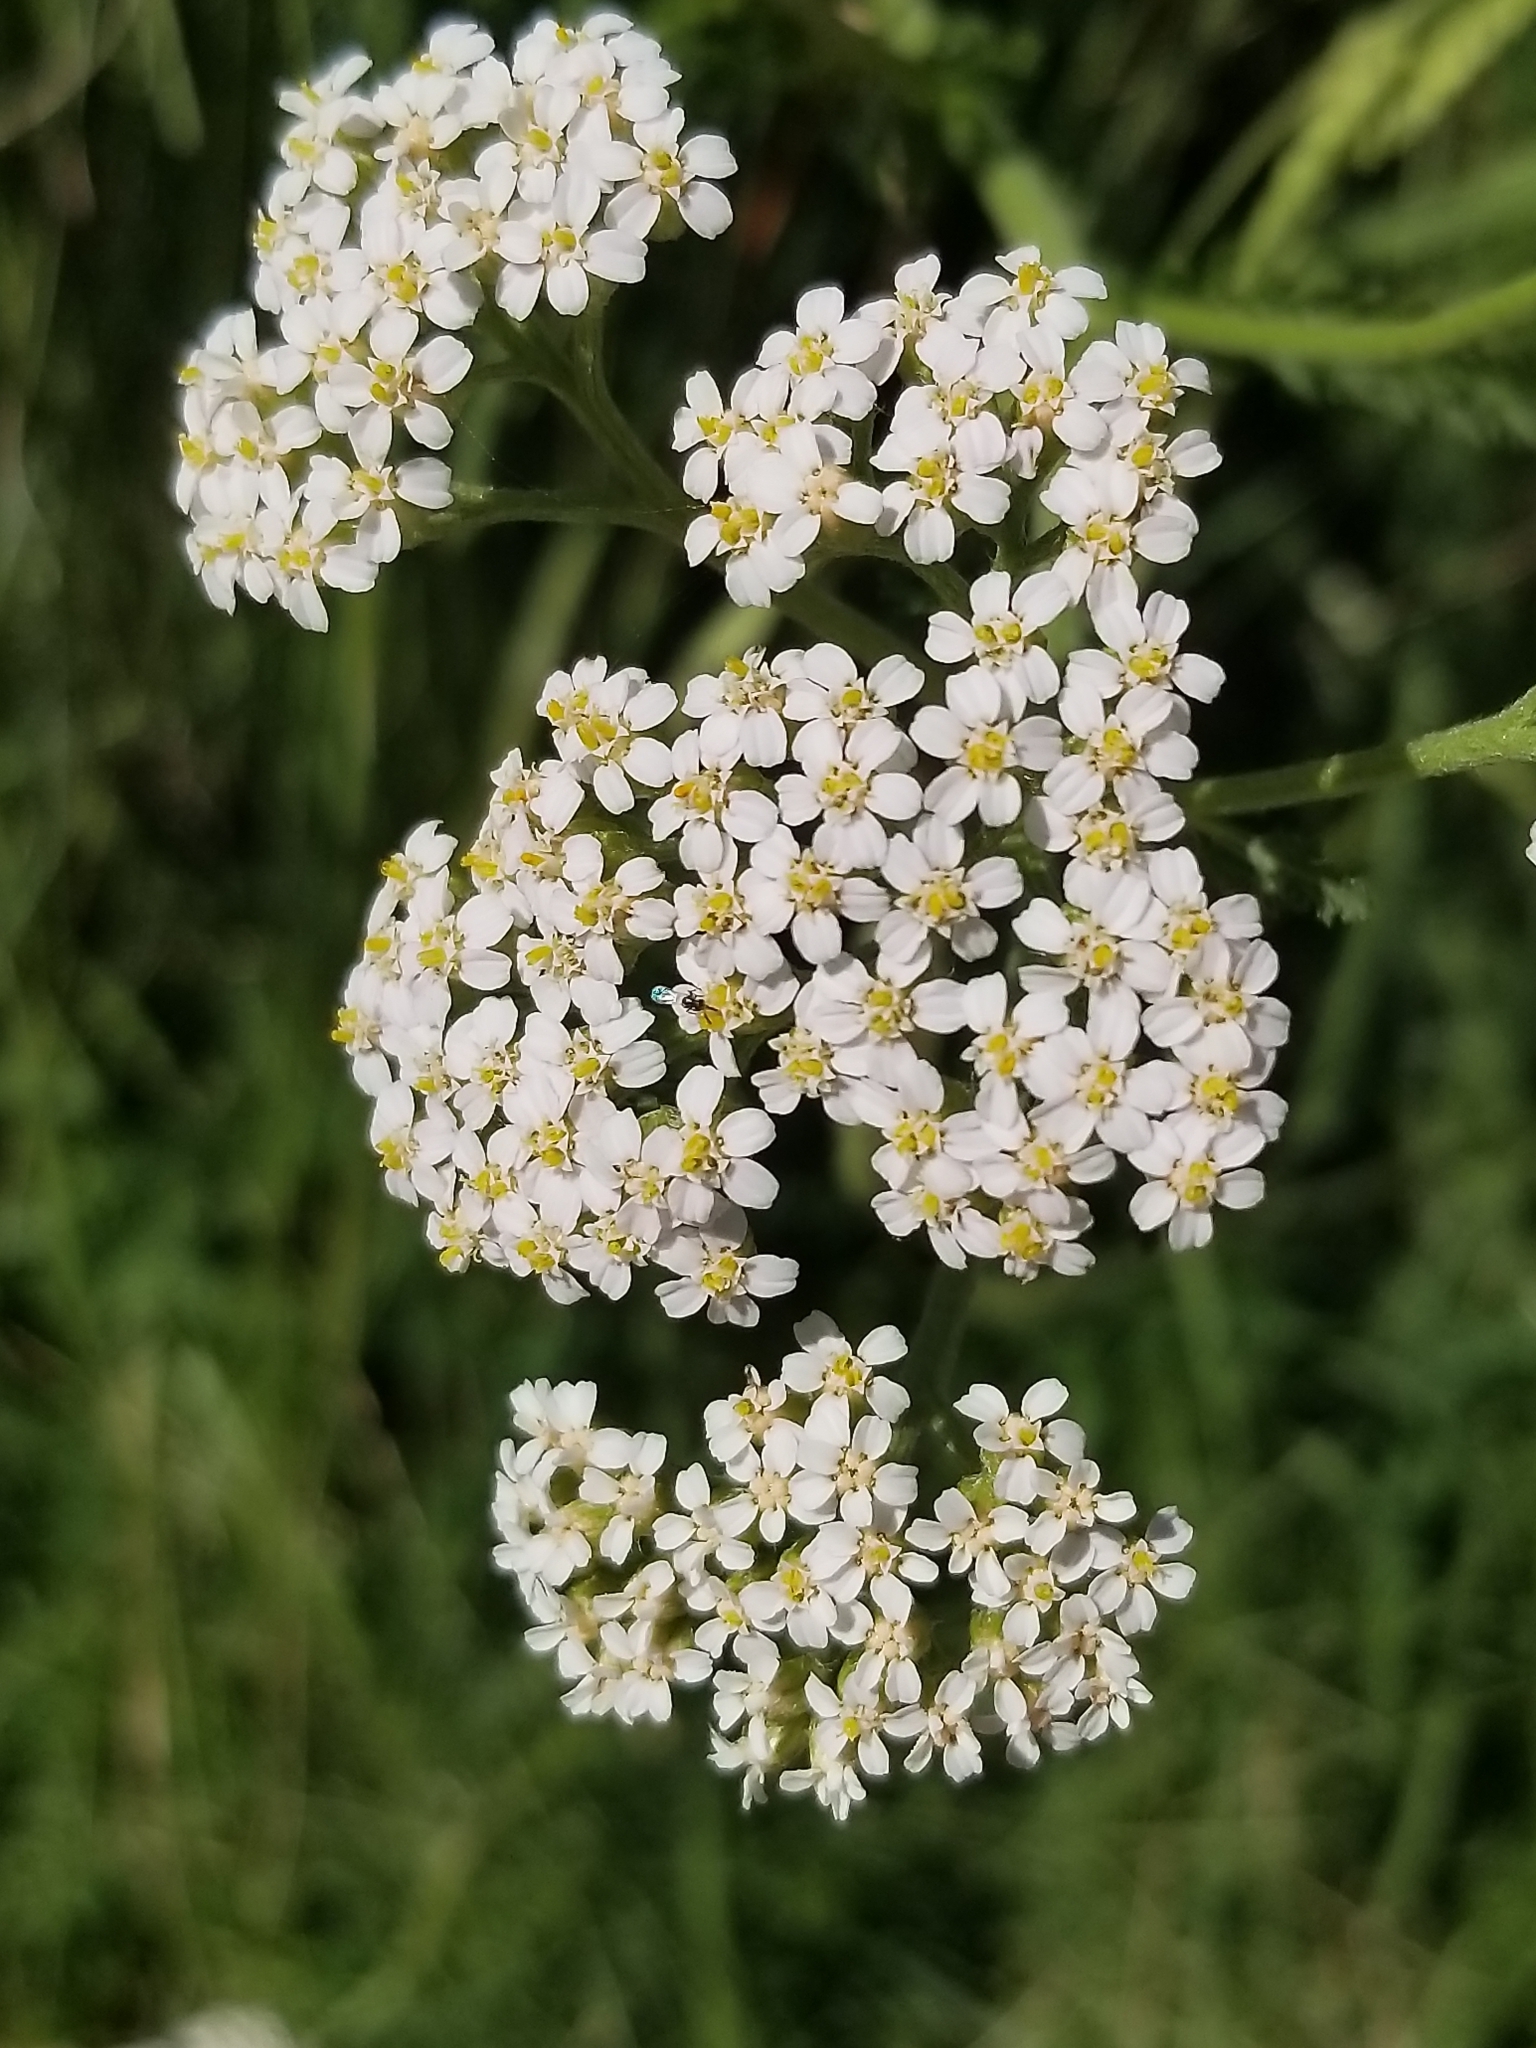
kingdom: Plantae
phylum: Tracheophyta
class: Magnoliopsida
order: Asterales
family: Asteraceae
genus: Achillea
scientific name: Achillea millefolium
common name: Yarrow
